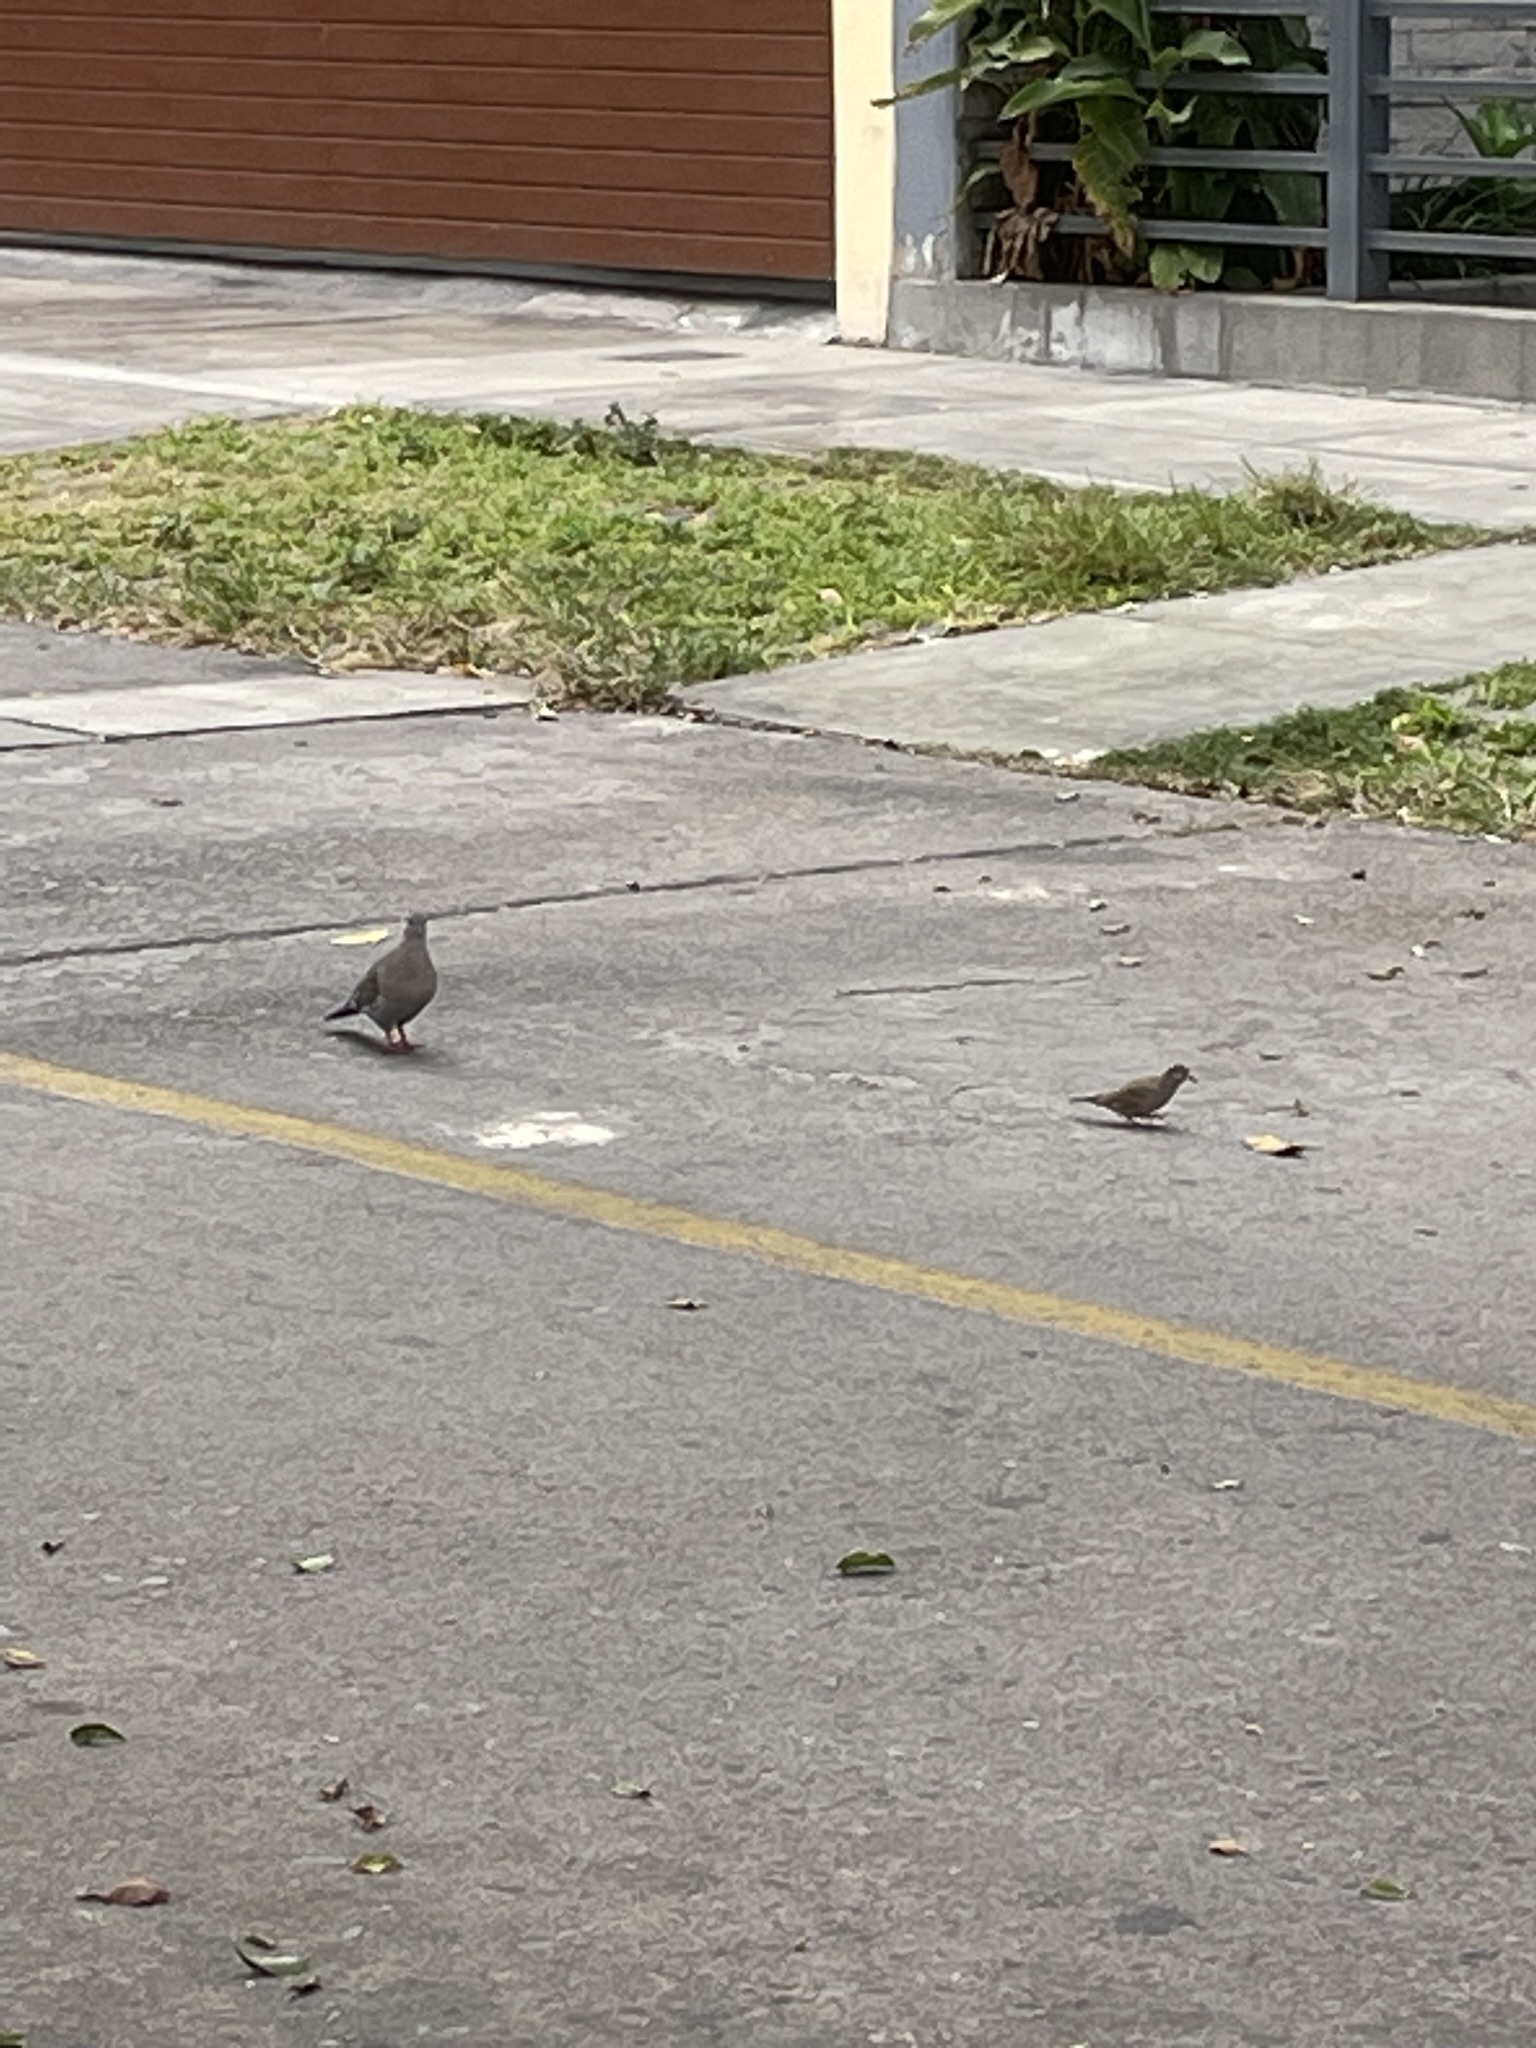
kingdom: Animalia
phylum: Chordata
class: Aves
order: Columbiformes
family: Columbidae
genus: Columbina
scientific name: Columbina cruziana
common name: Croaking ground dove
